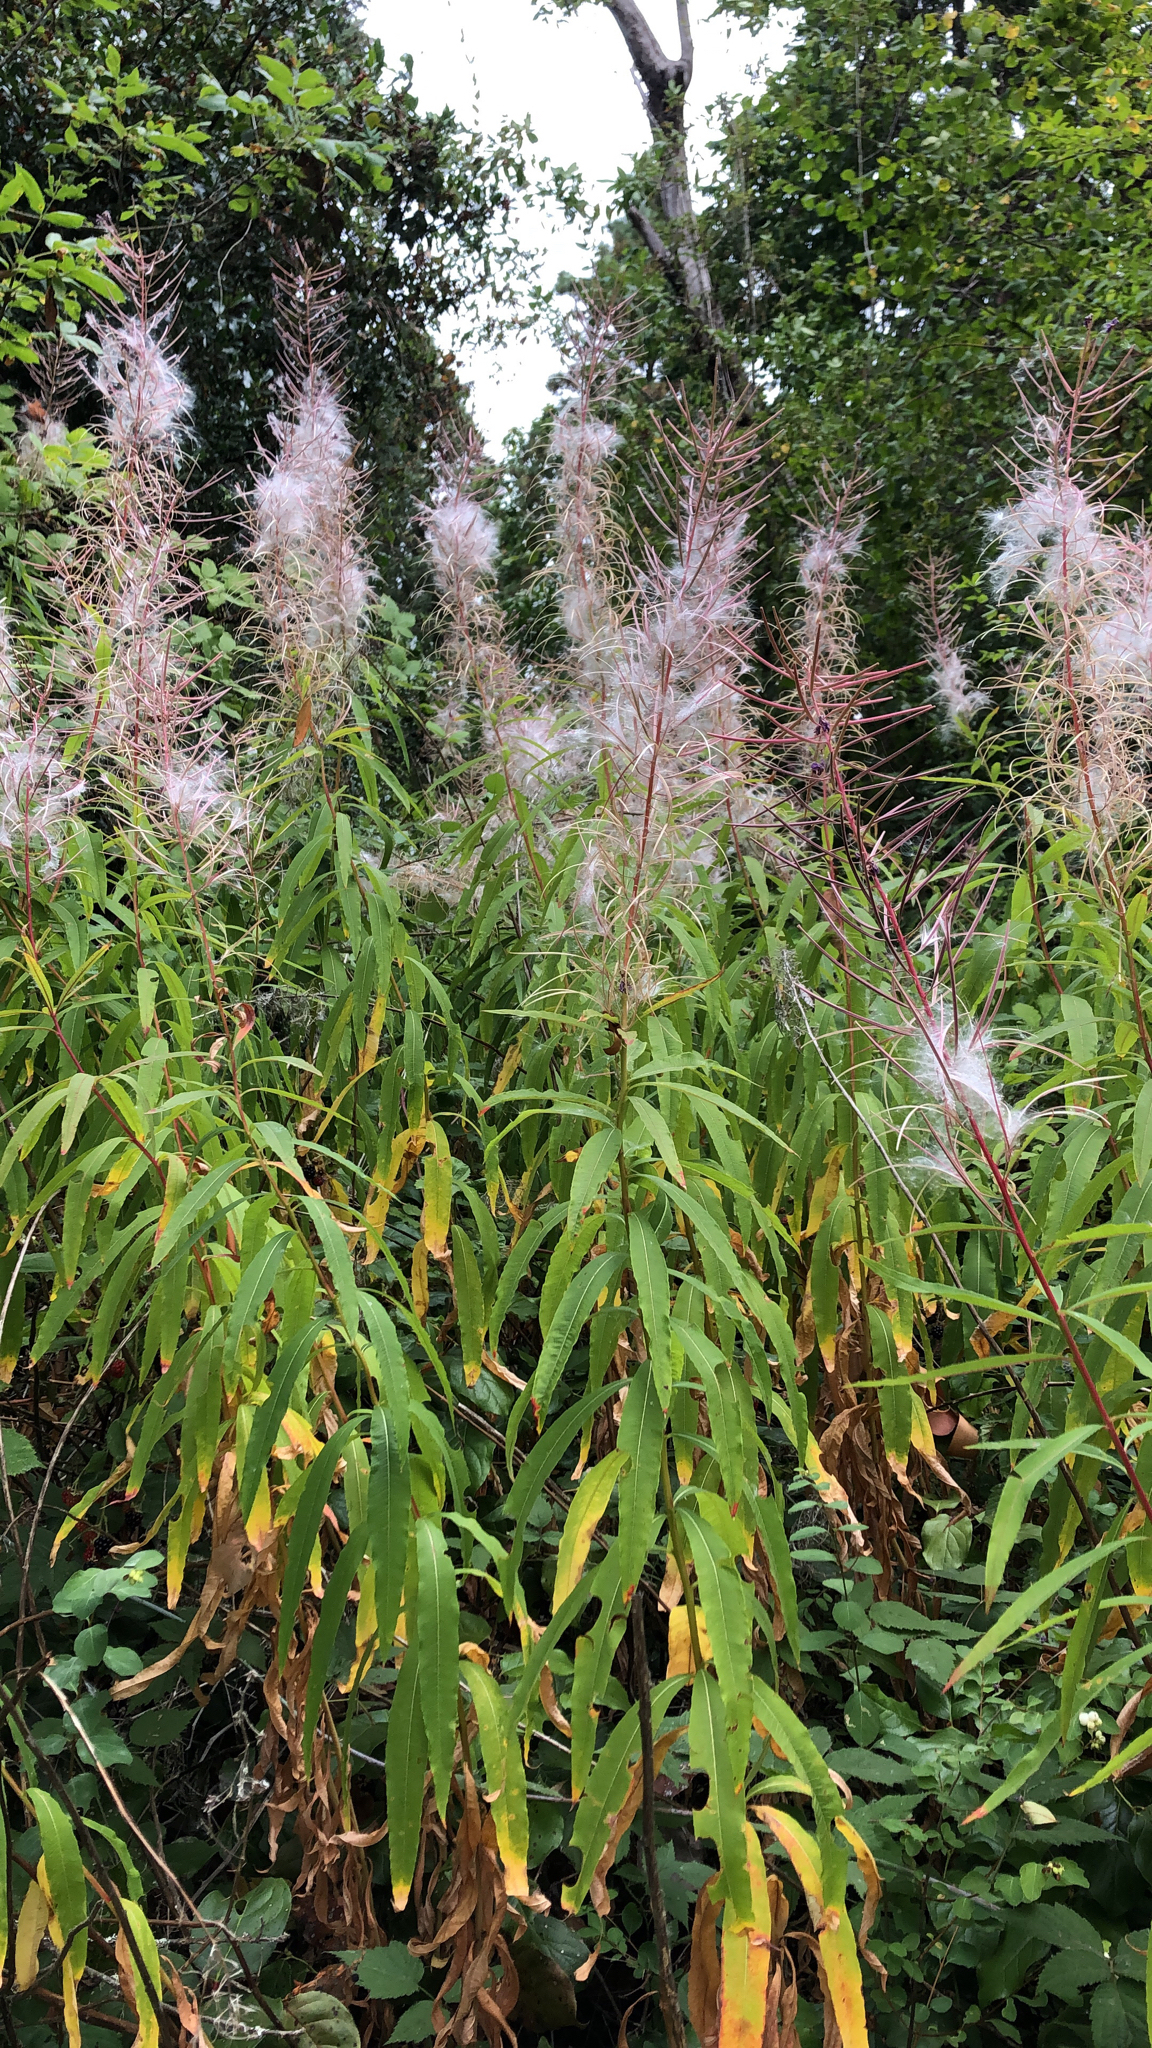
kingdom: Plantae
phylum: Tracheophyta
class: Magnoliopsida
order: Myrtales
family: Onagraceae
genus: Chamaenerion
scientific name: Chamaenerion angustifolium
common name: Fireweed
